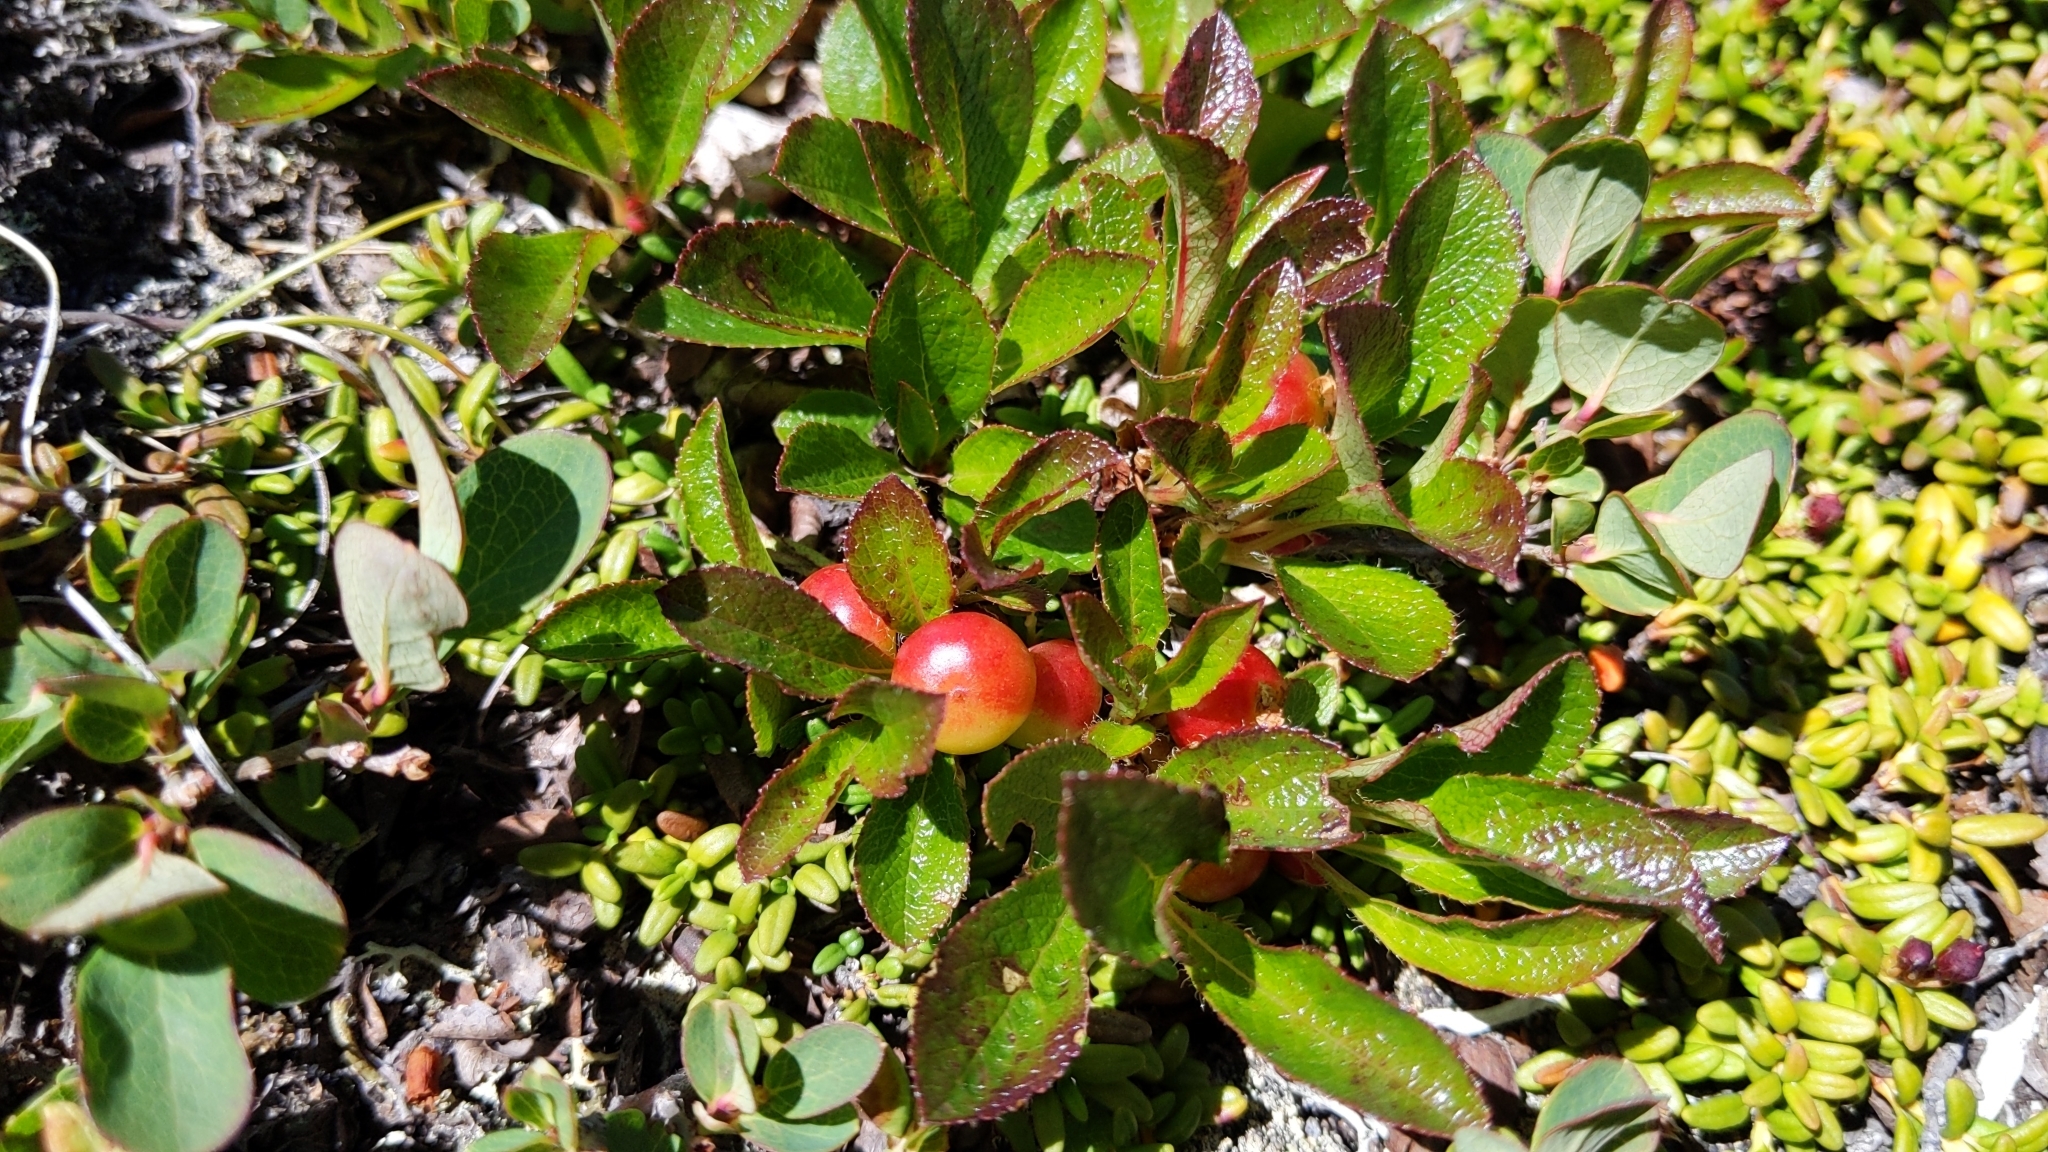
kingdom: Plantae
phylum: Tracheophyta
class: Magnoliopsida
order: Ericales
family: Ericaceae
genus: Arctostaphylos
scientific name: Arctostaphylos alpinus
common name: Alpine bearberry
